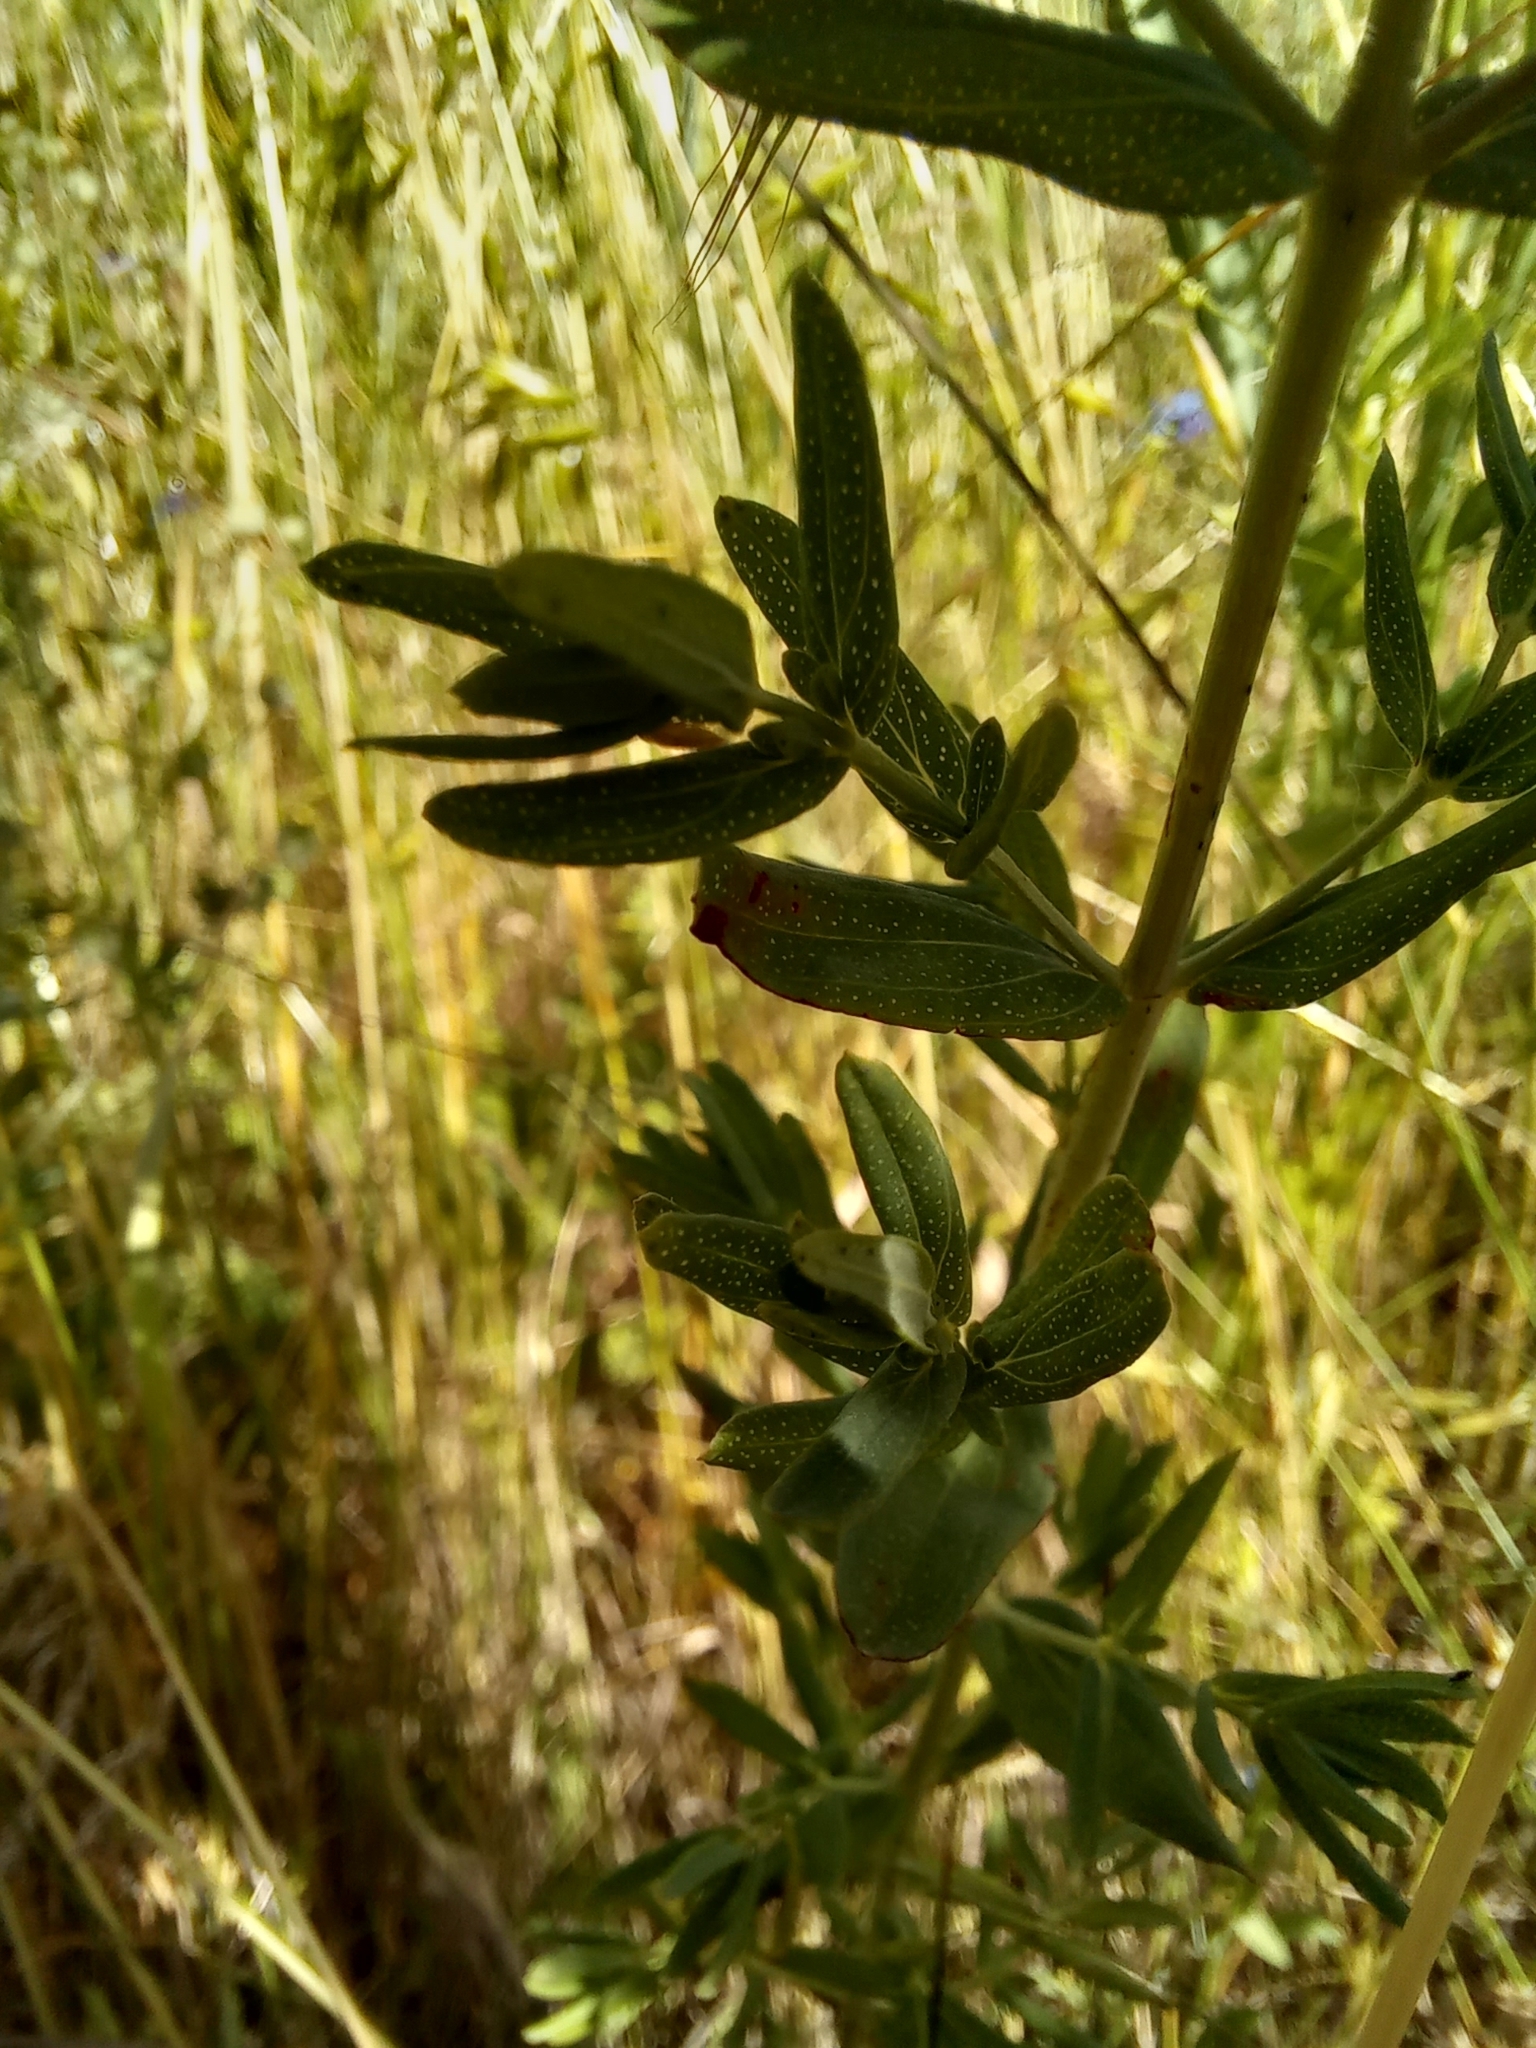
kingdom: Plantae
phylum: Tracheophyta
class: Magnoliopsida
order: Malpighiales
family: Hypericaceae
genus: Hypericum
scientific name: Hypericum perforatum
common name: Common st. johnswort
